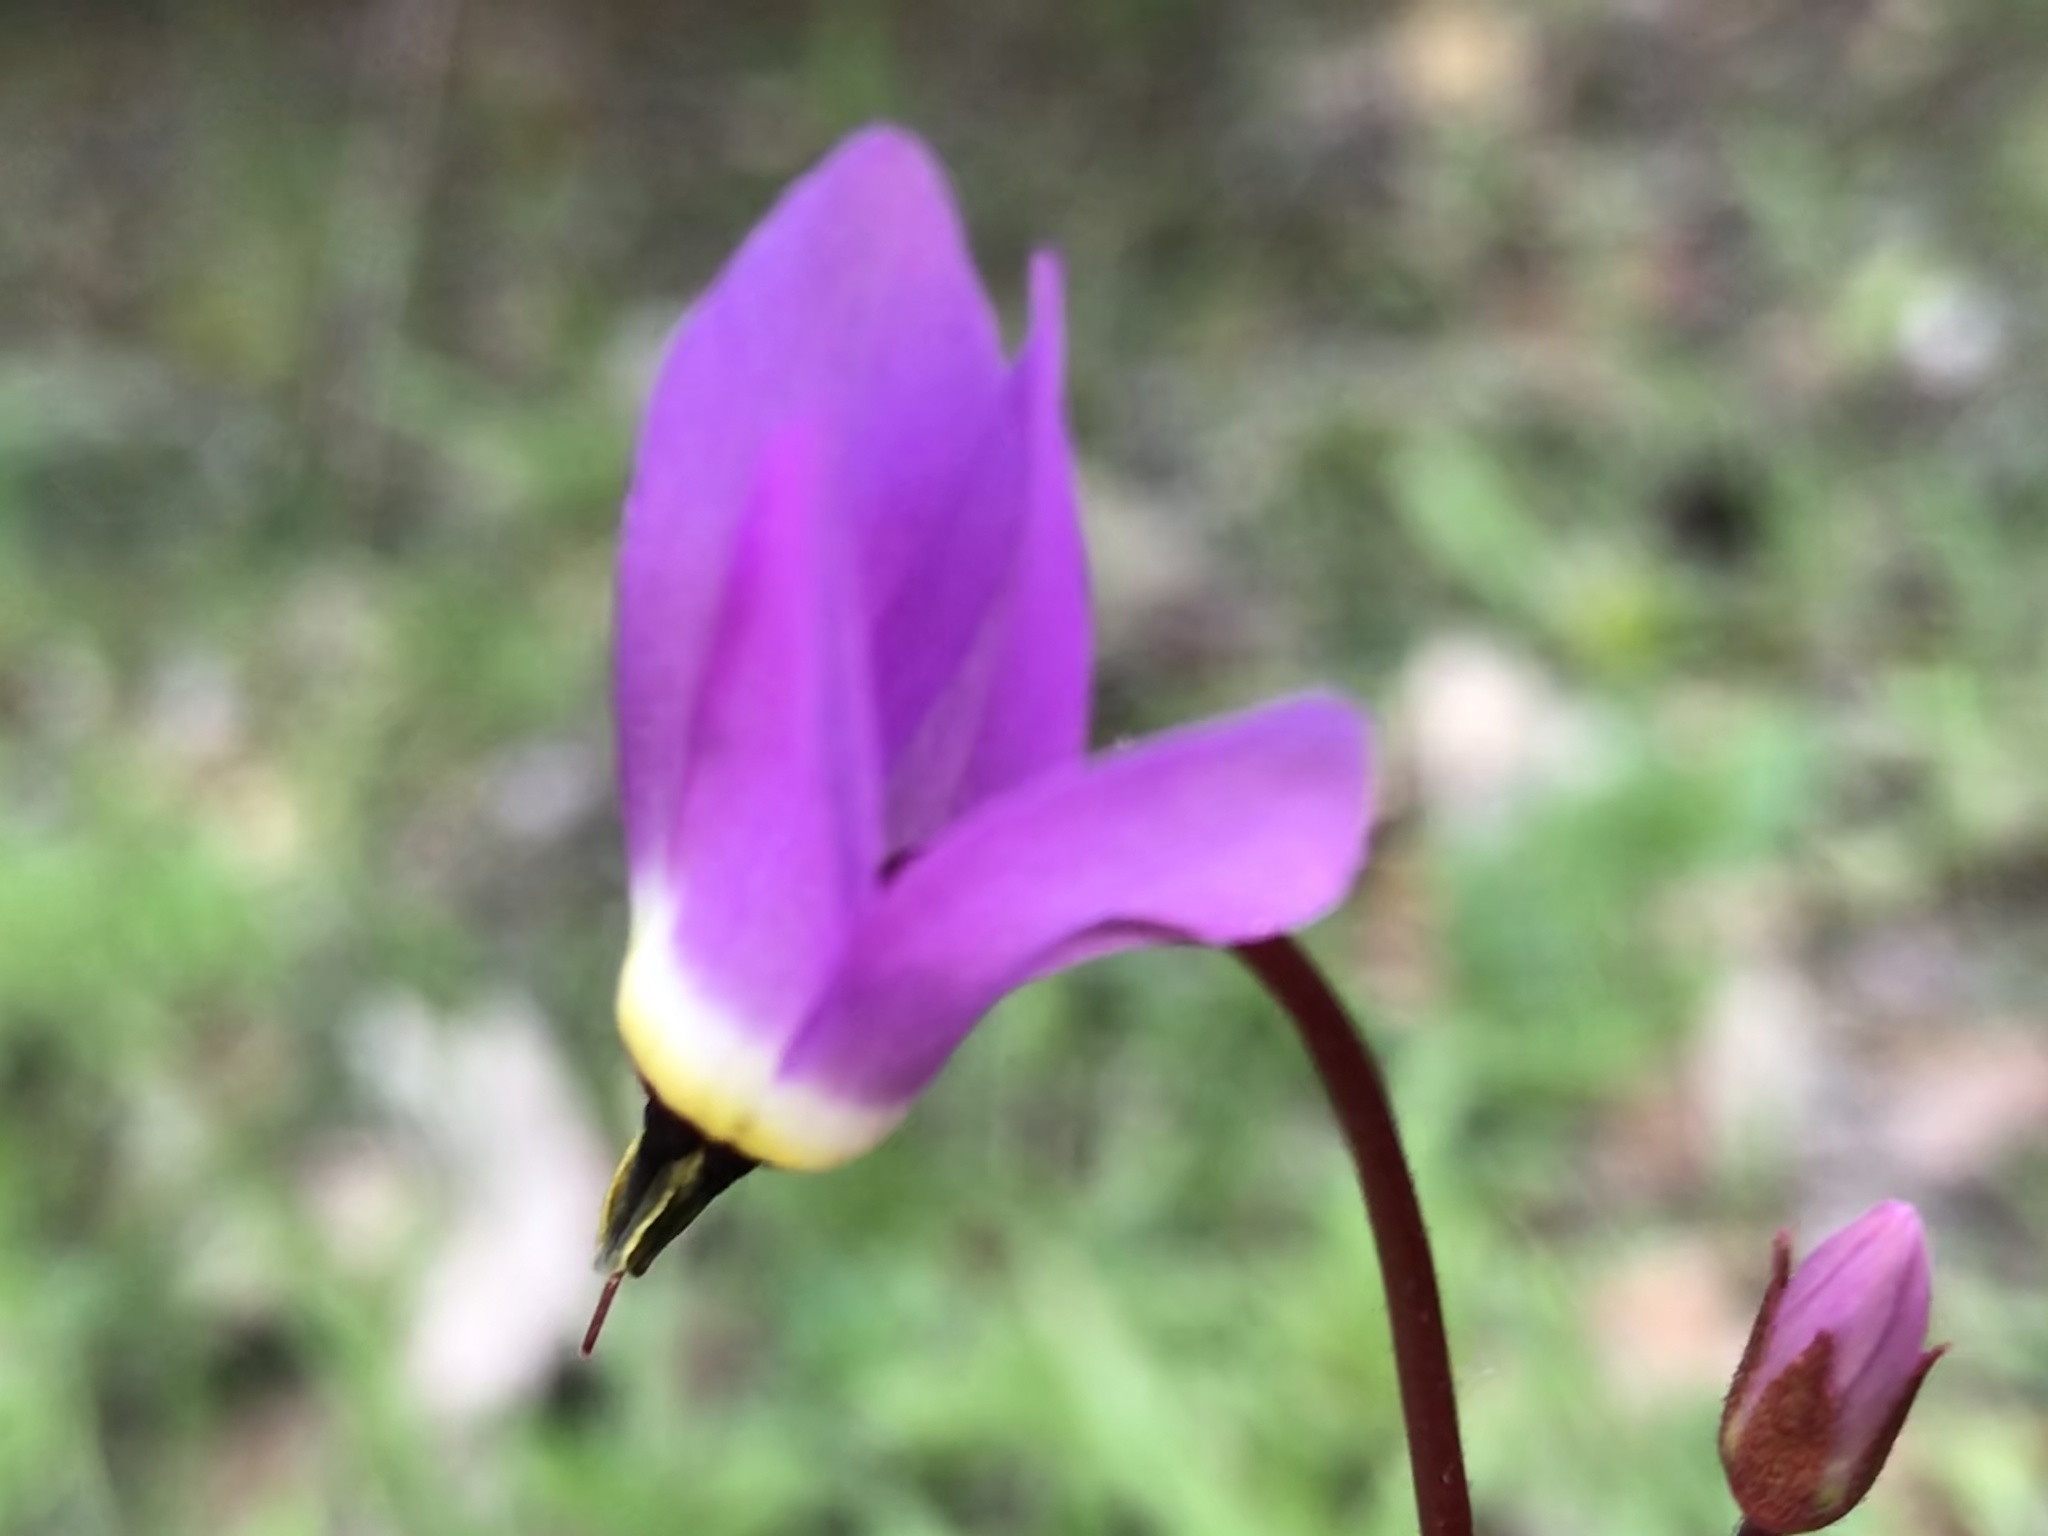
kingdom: Plantae
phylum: Tracheophyta
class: Magnoliopsida
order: Ericales
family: Primulaceae
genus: Dodecatheon
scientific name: Dodecatheon hendersonii
